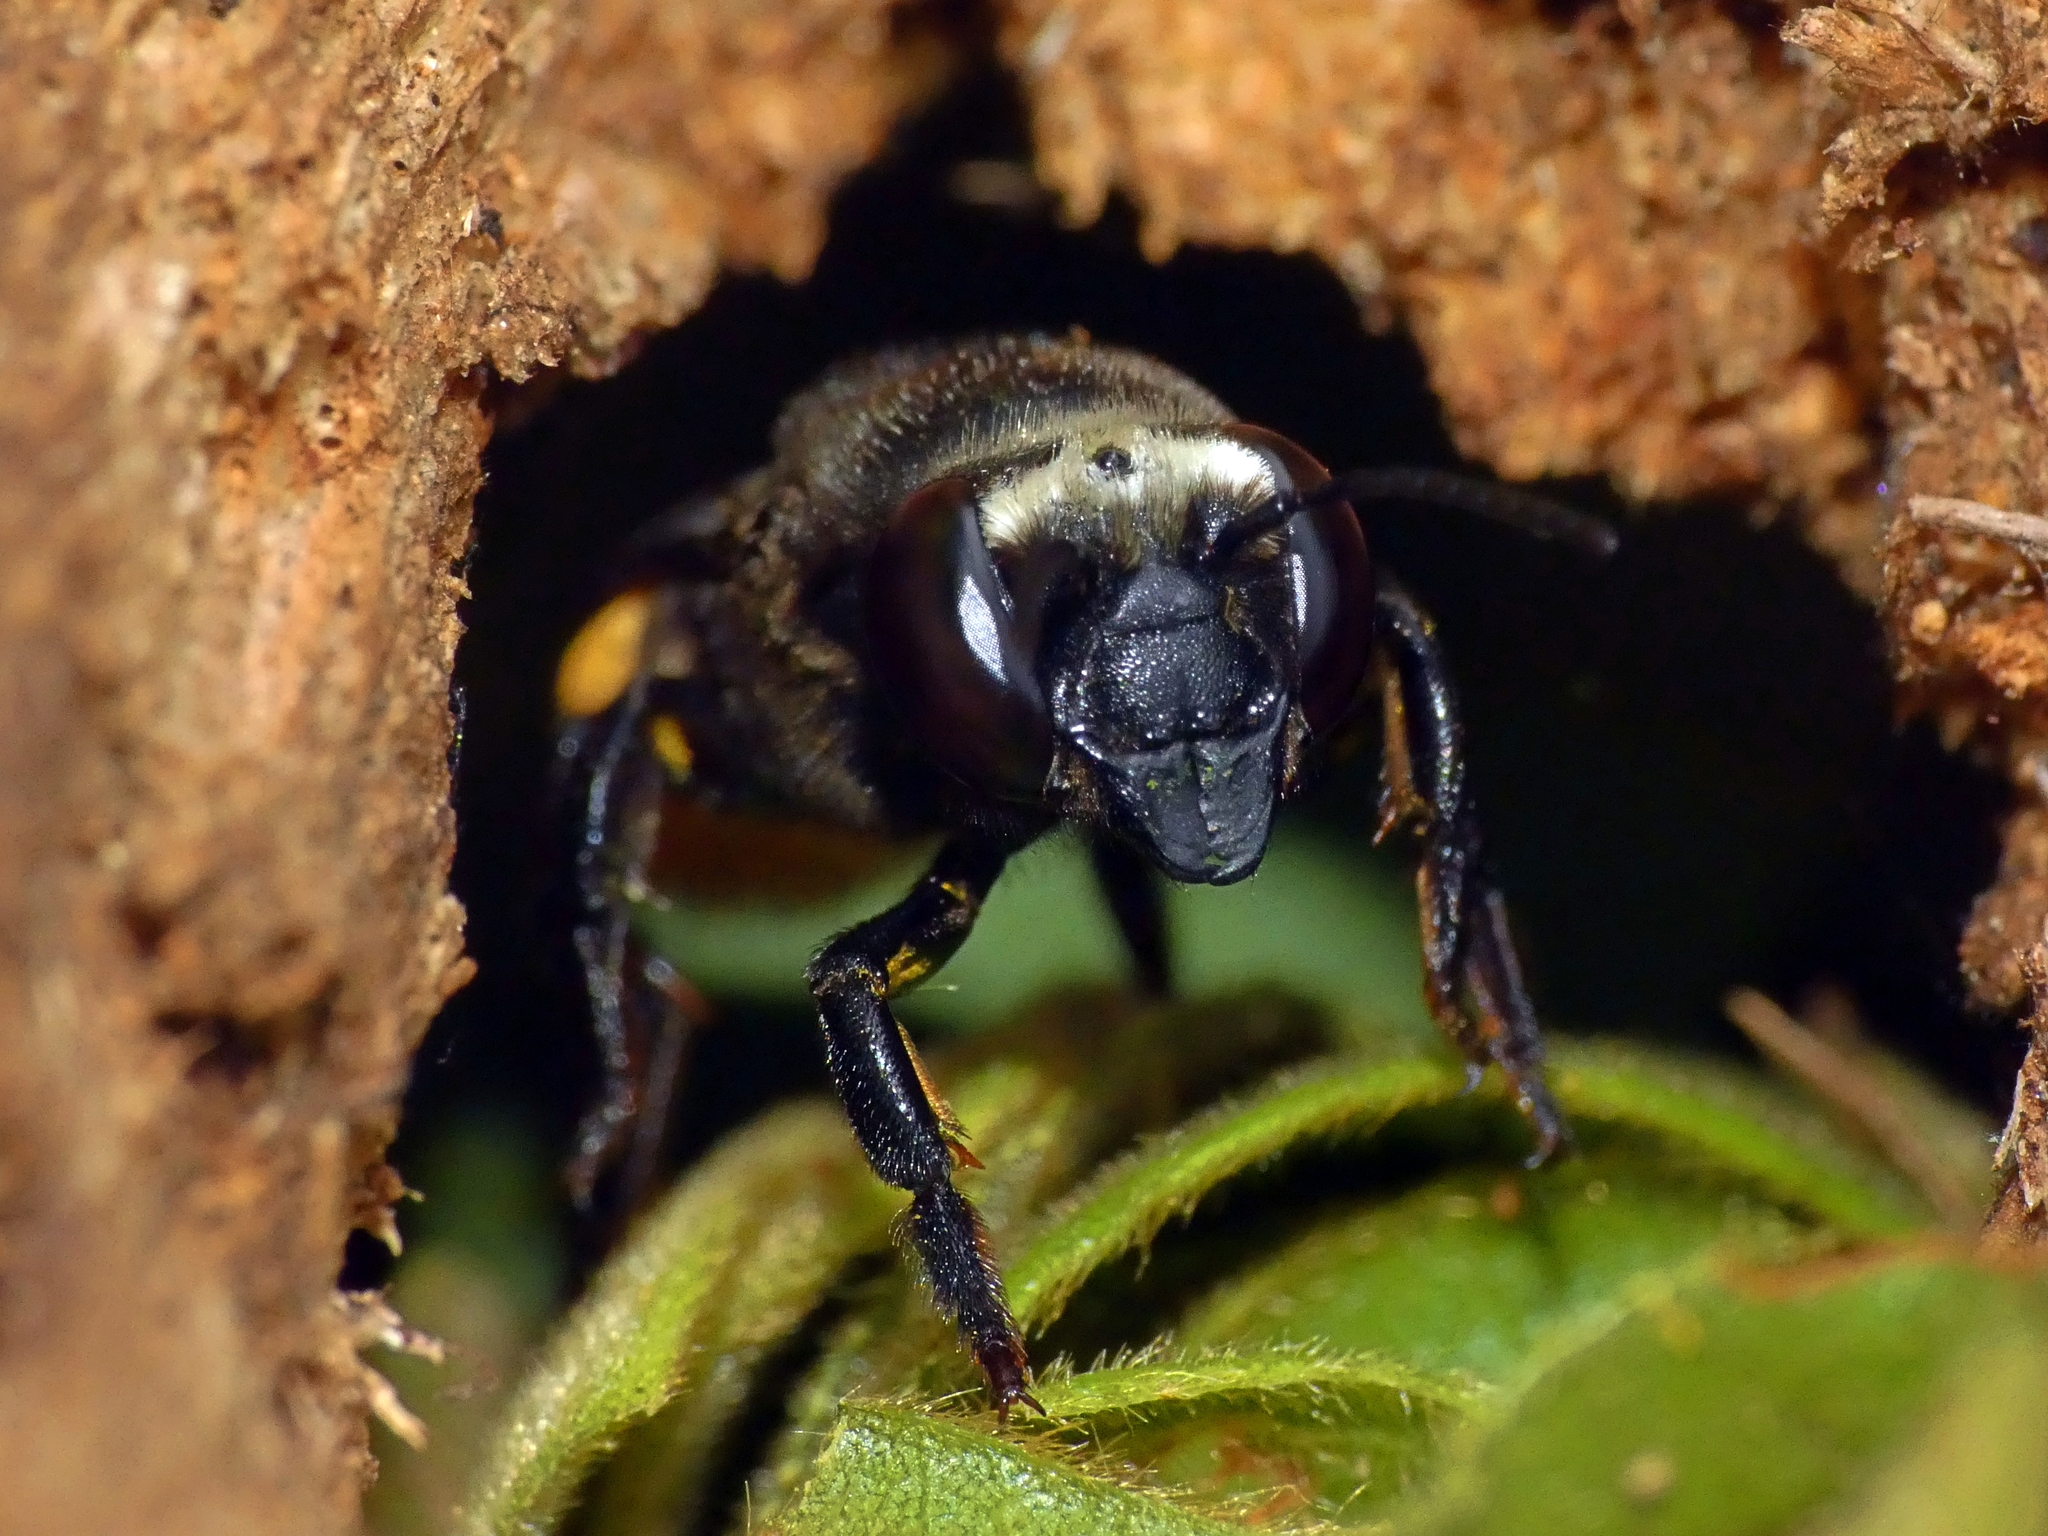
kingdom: Animalia
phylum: Arthropoda
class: Insecta
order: Hymenoptera
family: Megachilidae
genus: Megachile
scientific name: Megachile mystacea
